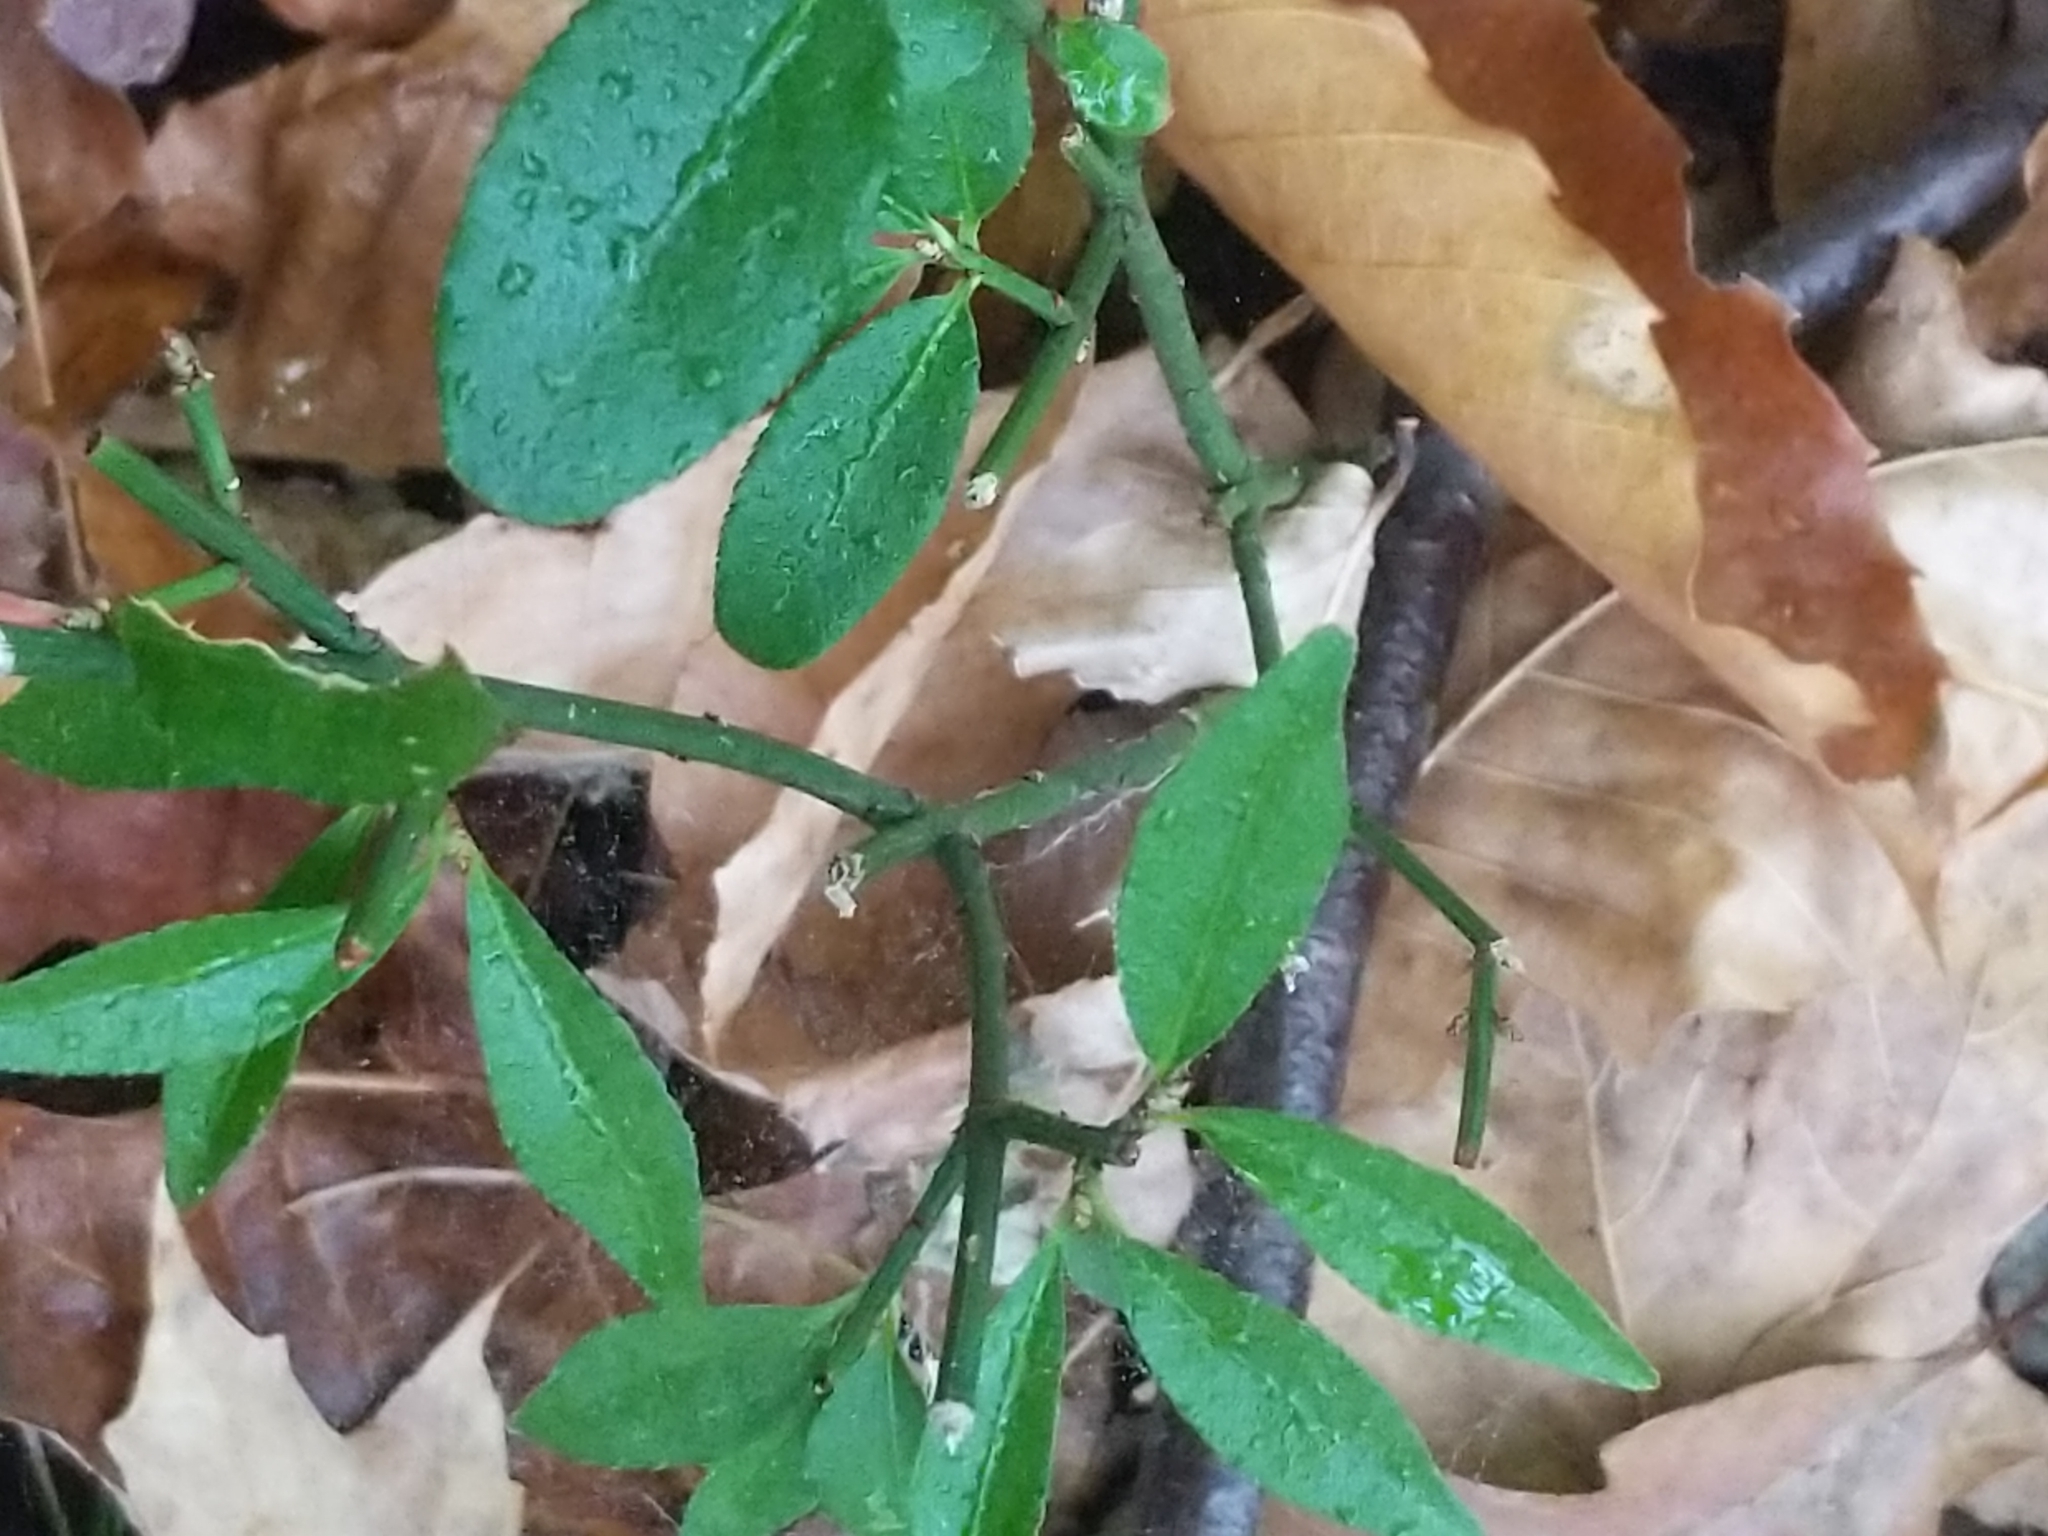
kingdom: Plantae
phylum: Tracheophyta
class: Magnoliopsida
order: Celastrales
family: Celastraceae
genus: Euonymus
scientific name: Euonymus alatus
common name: Winged euonymus
